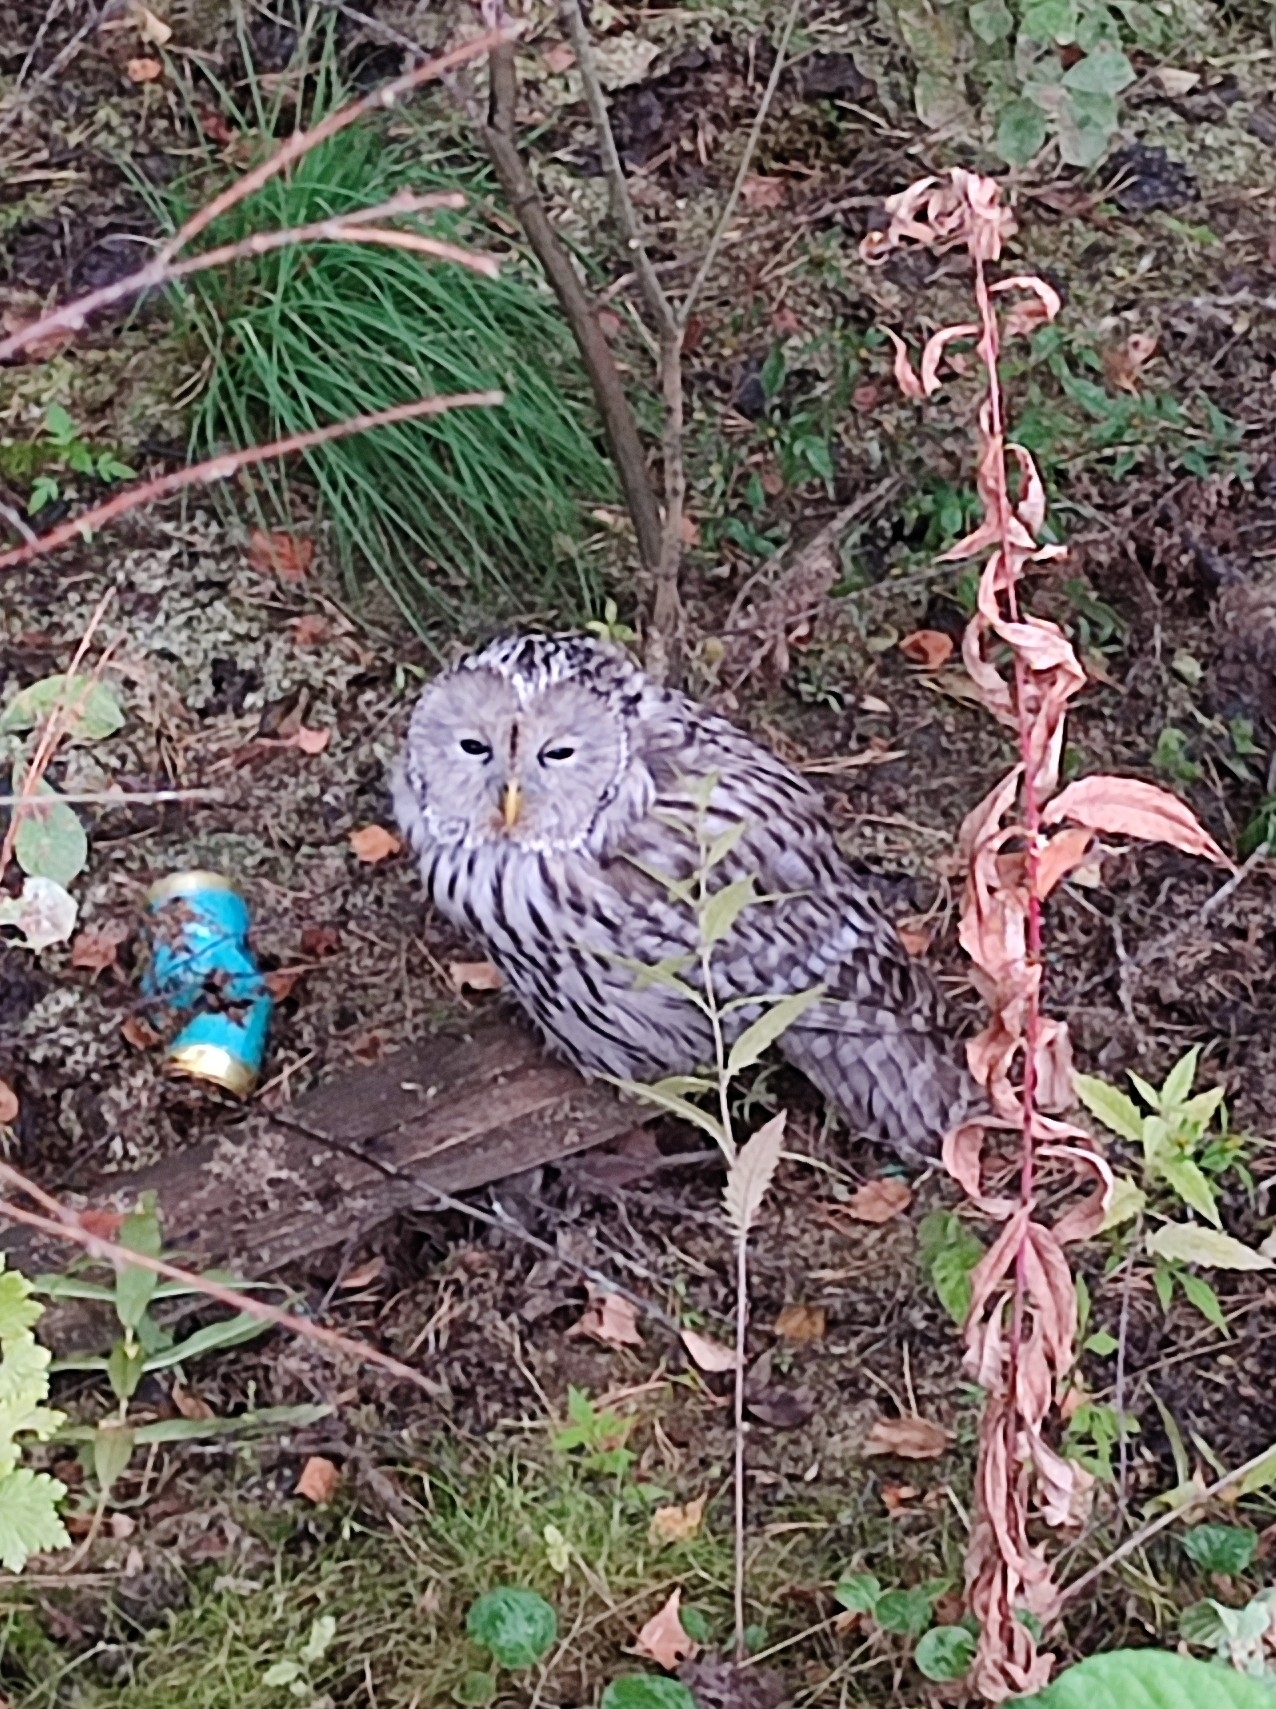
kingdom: Animalia
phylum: Chordata
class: Aves
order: Strigiformes
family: Strigidae
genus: Strix
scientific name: Strix uralensis
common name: Ural owl
